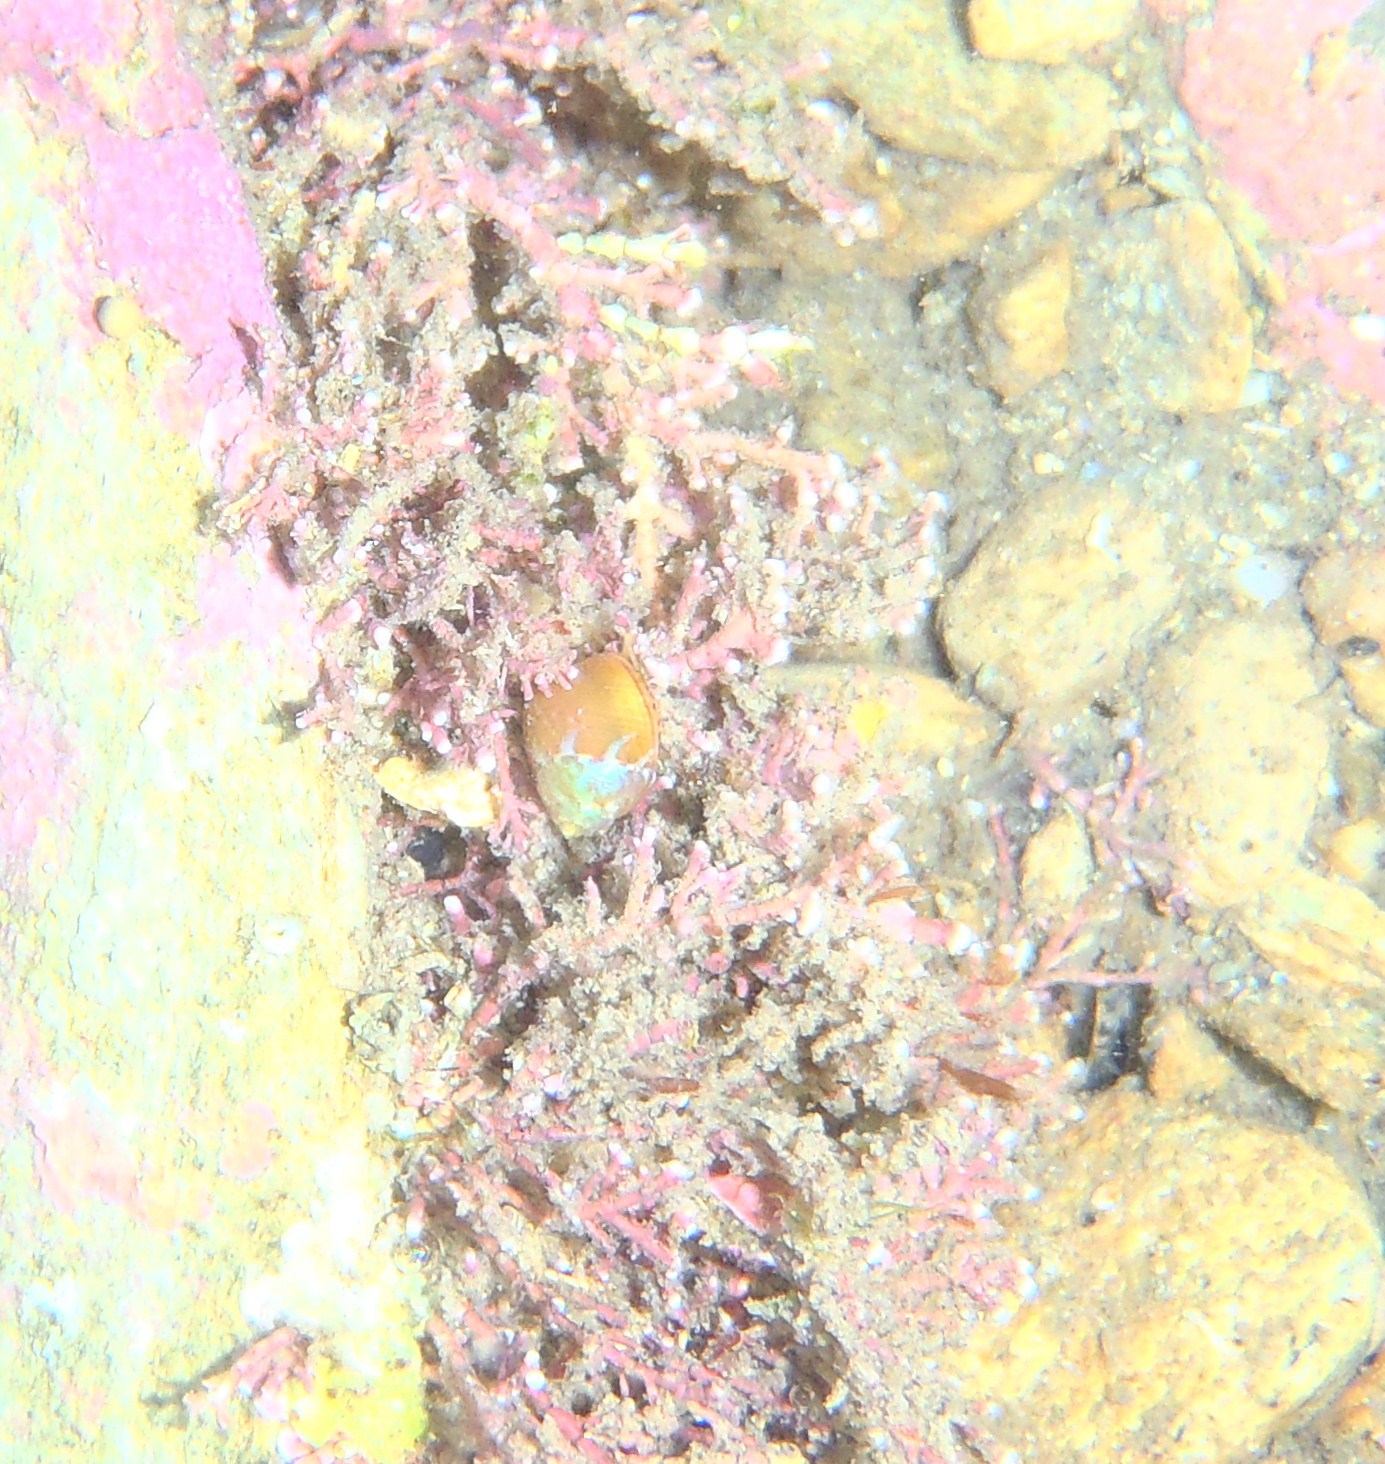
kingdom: Animalia
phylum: Mollusca
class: Gastropoda
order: Trochida
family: Trochidae
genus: Cantharidus
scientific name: Cantharidus dilatatus
